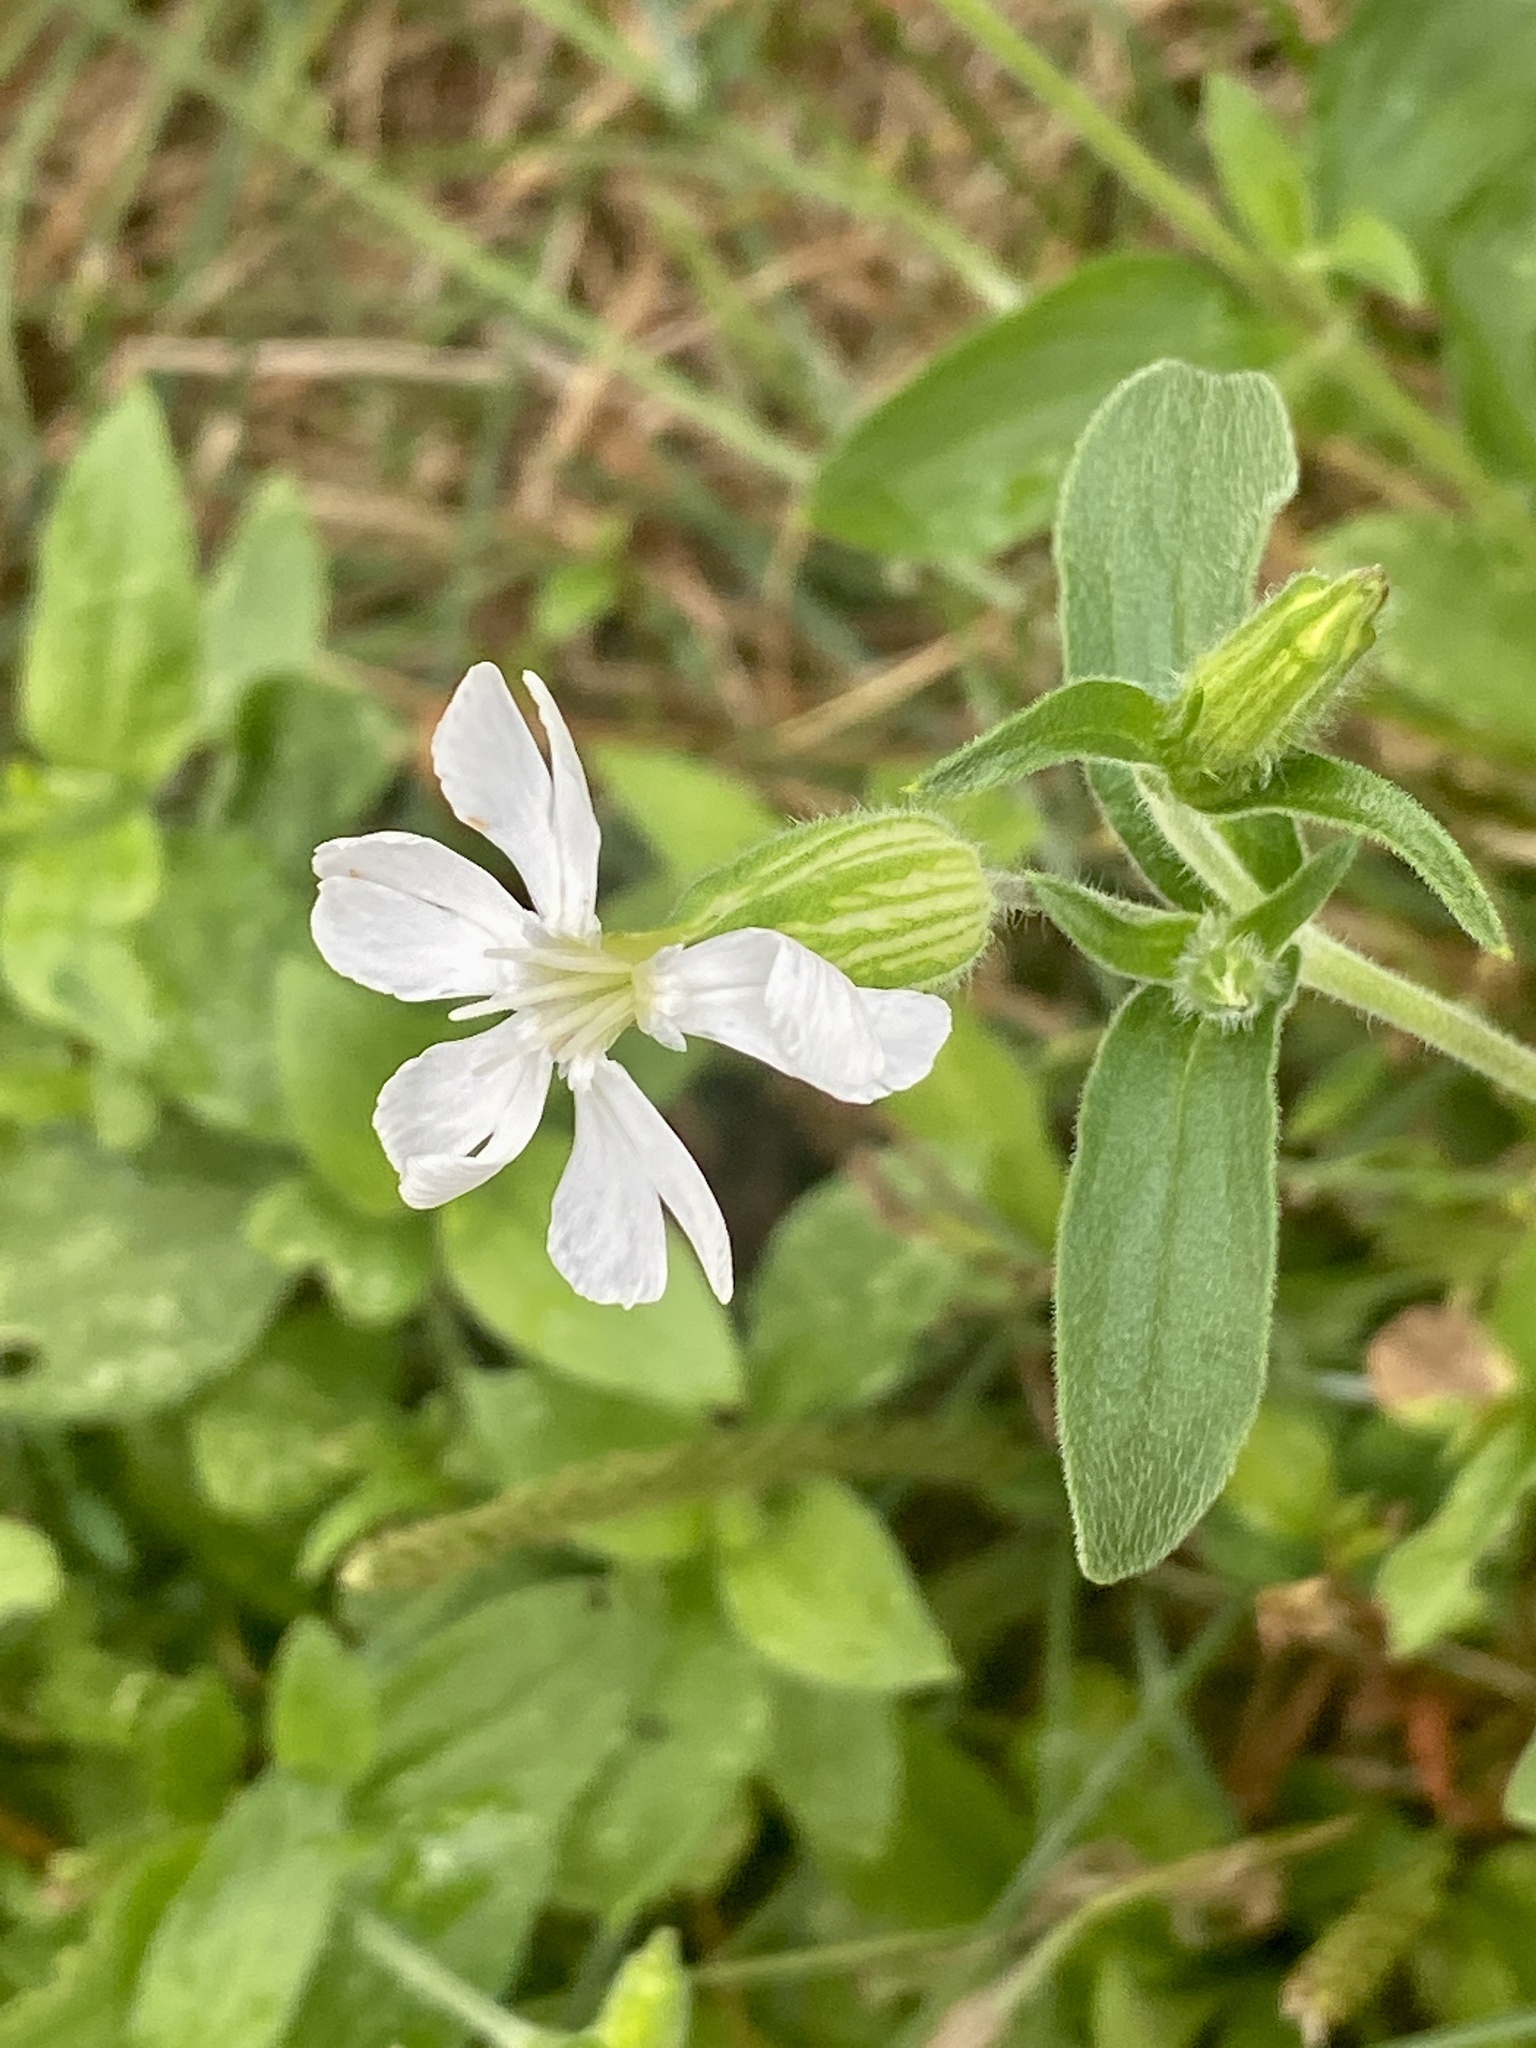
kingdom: Plantae
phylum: Tracheophyta
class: Magnoliopsida
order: Caryophyllales
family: Caryophyllaceae
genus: Silene
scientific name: Silene latifolia
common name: White campion
